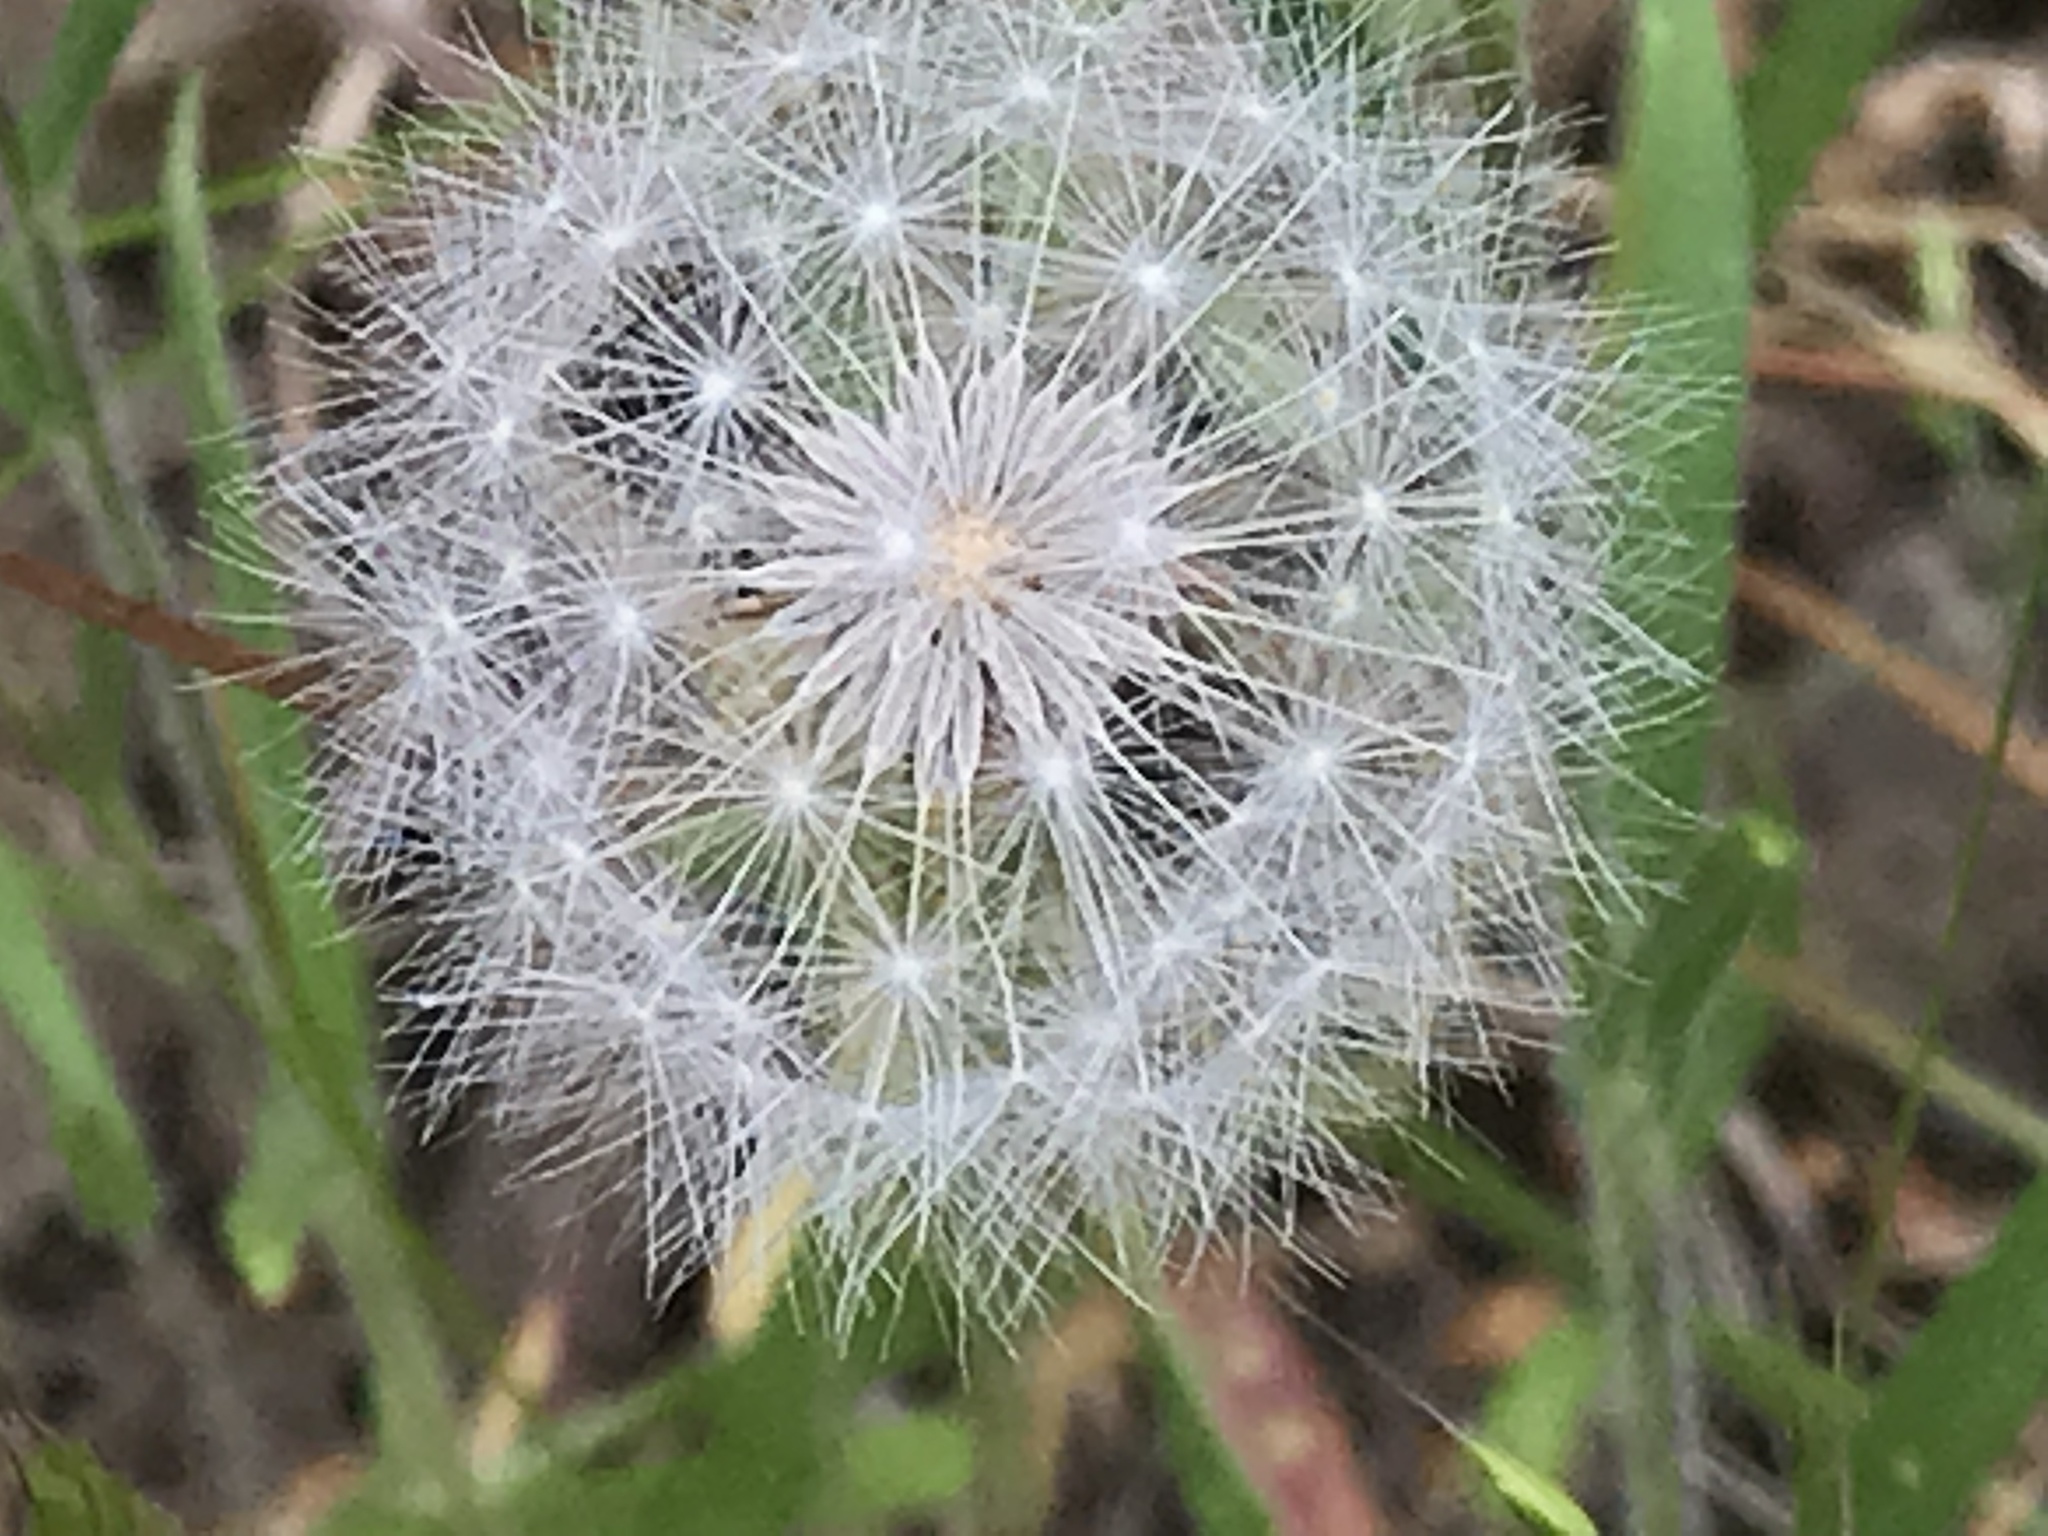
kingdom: Plantae
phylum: Tracheophyta
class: Magnoliopsida
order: Asterales
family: Asteraceae
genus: Taraxacum
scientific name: Taraxacum officinale
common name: Common dandelion
